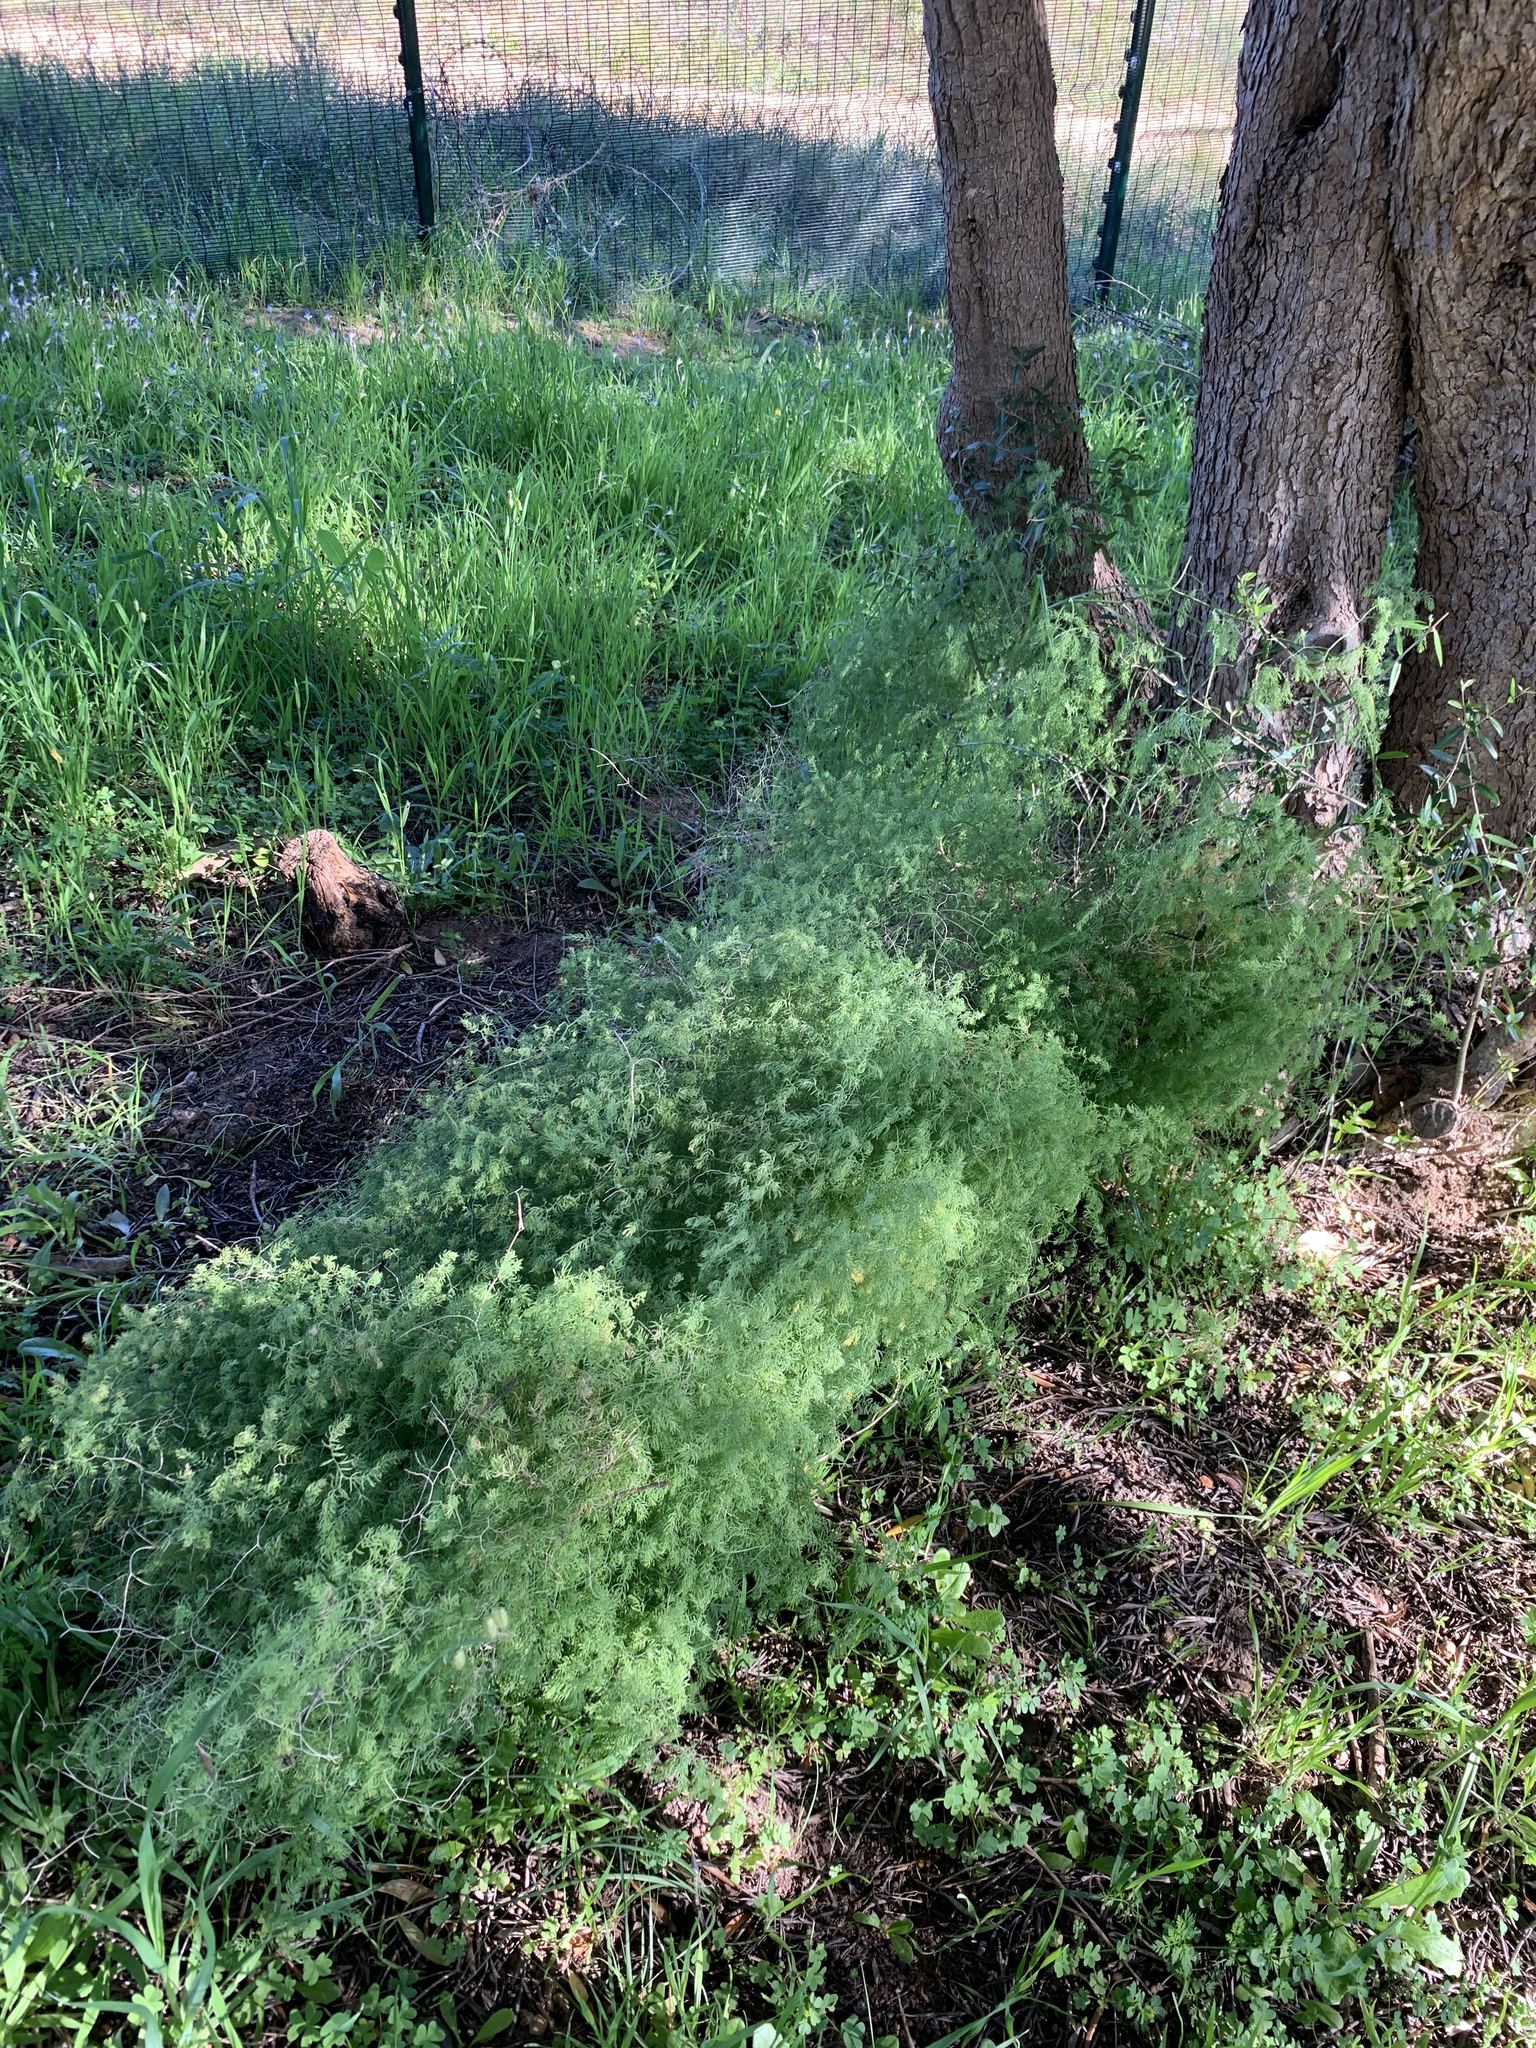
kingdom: Plantae
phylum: Tracheophyta
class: Liliopsida
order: Asparagales
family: Asparagaceae
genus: Asparagus
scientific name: Asparagus declinatus
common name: Bridal-creeper
